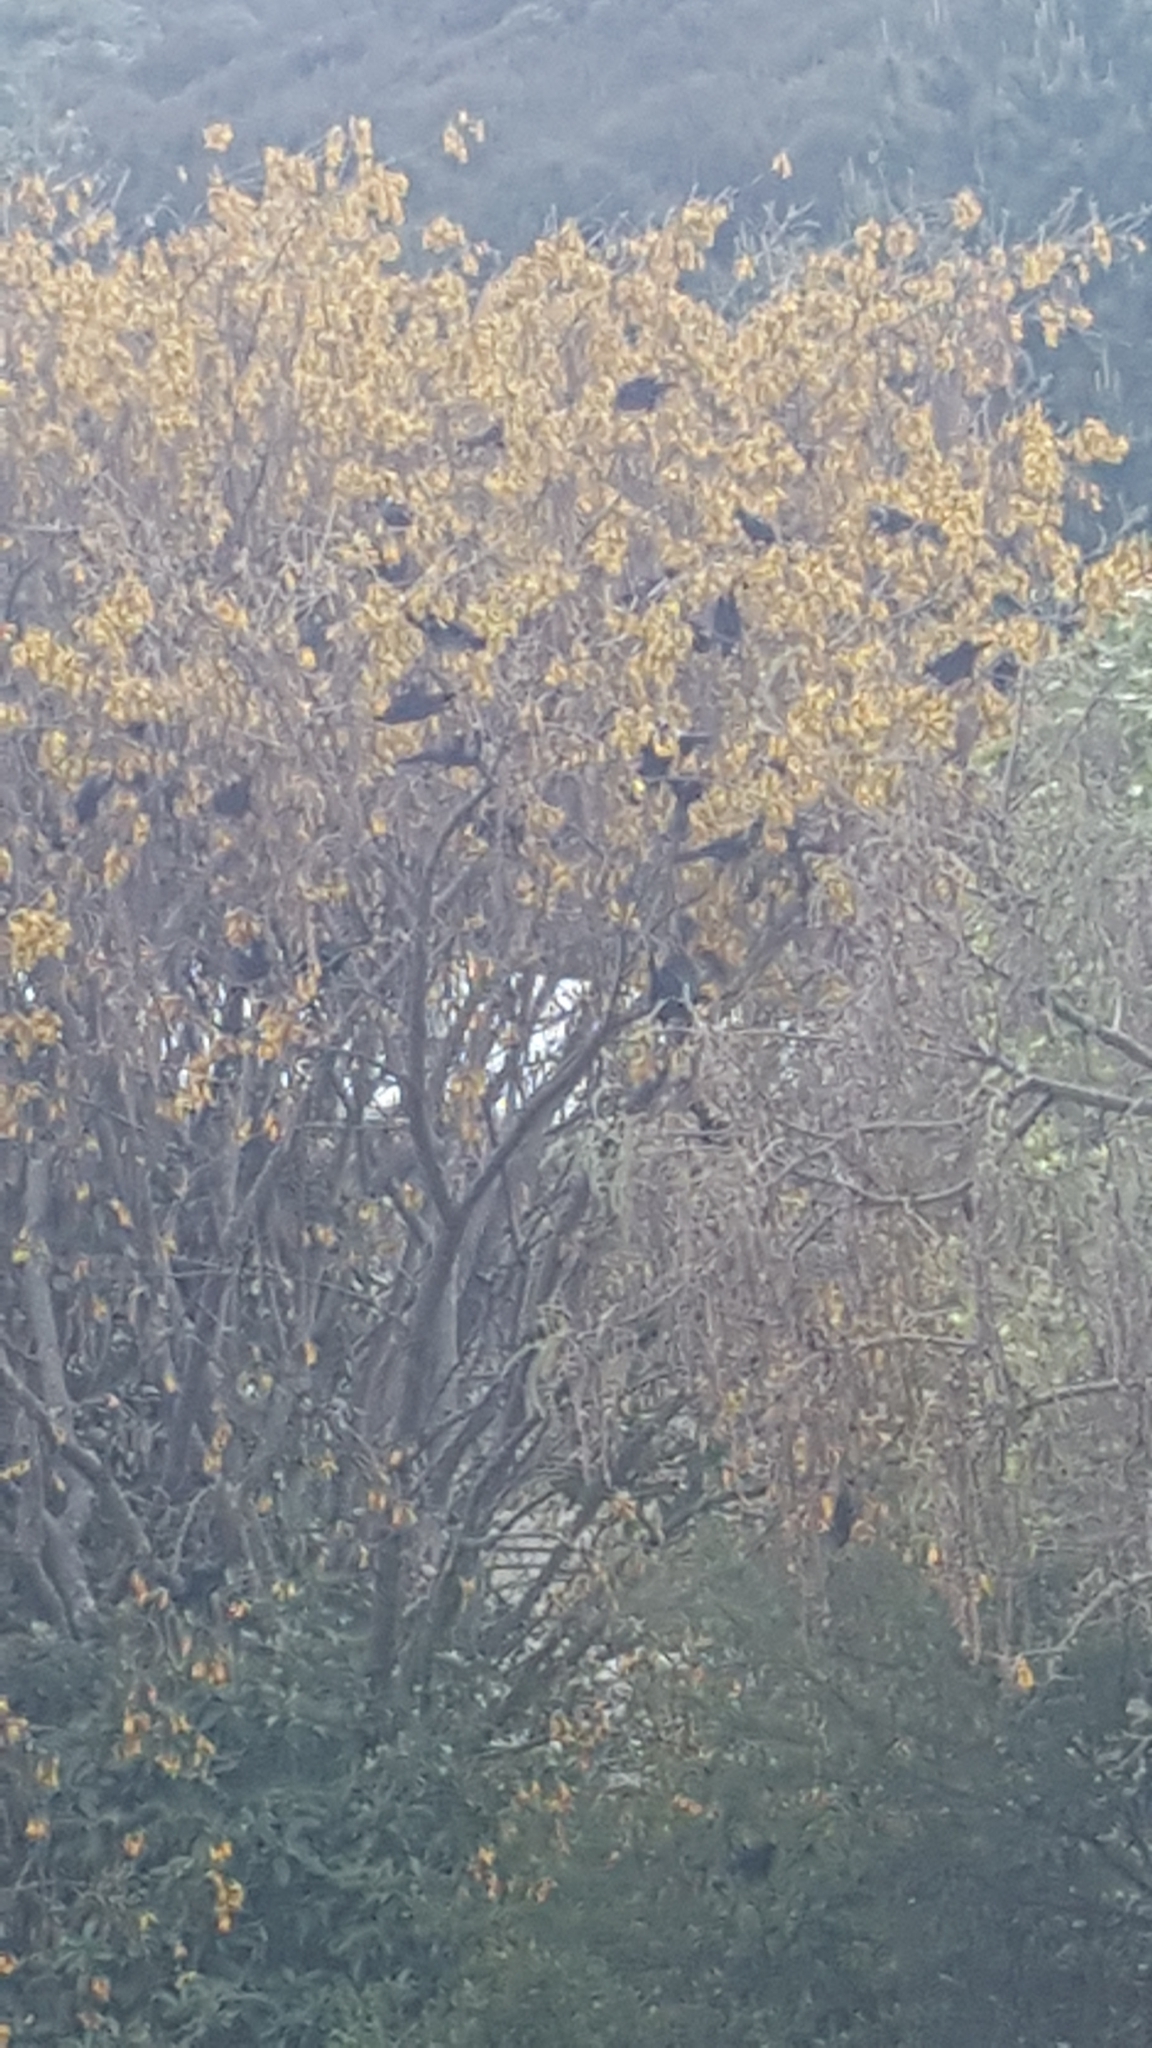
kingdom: Animalia
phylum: Chordata
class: Aves
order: Passeriformes
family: Meliphagidae
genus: Prosthemadera
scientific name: Prosthemadera novaeseelandiae
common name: Tui
